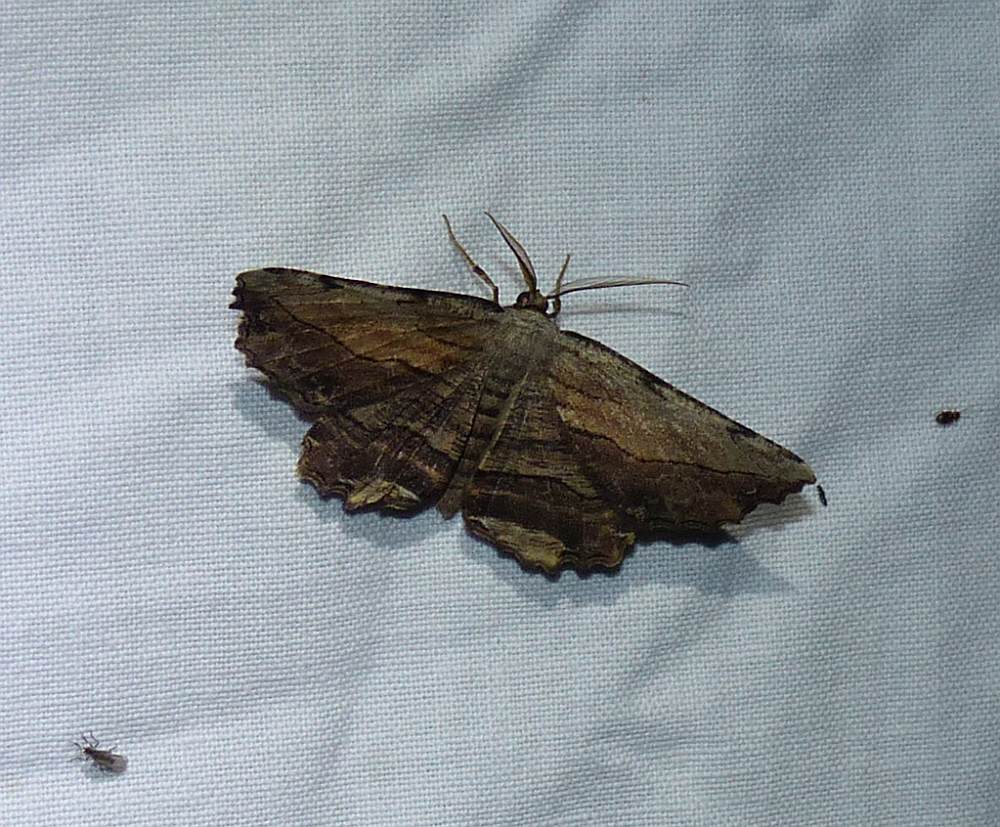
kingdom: Animalia
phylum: Arthropoda
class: Insecta
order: Lepidoptera
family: Geometridae
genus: Lytrosis
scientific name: Lytrosis unitaria
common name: Common lytrosis
